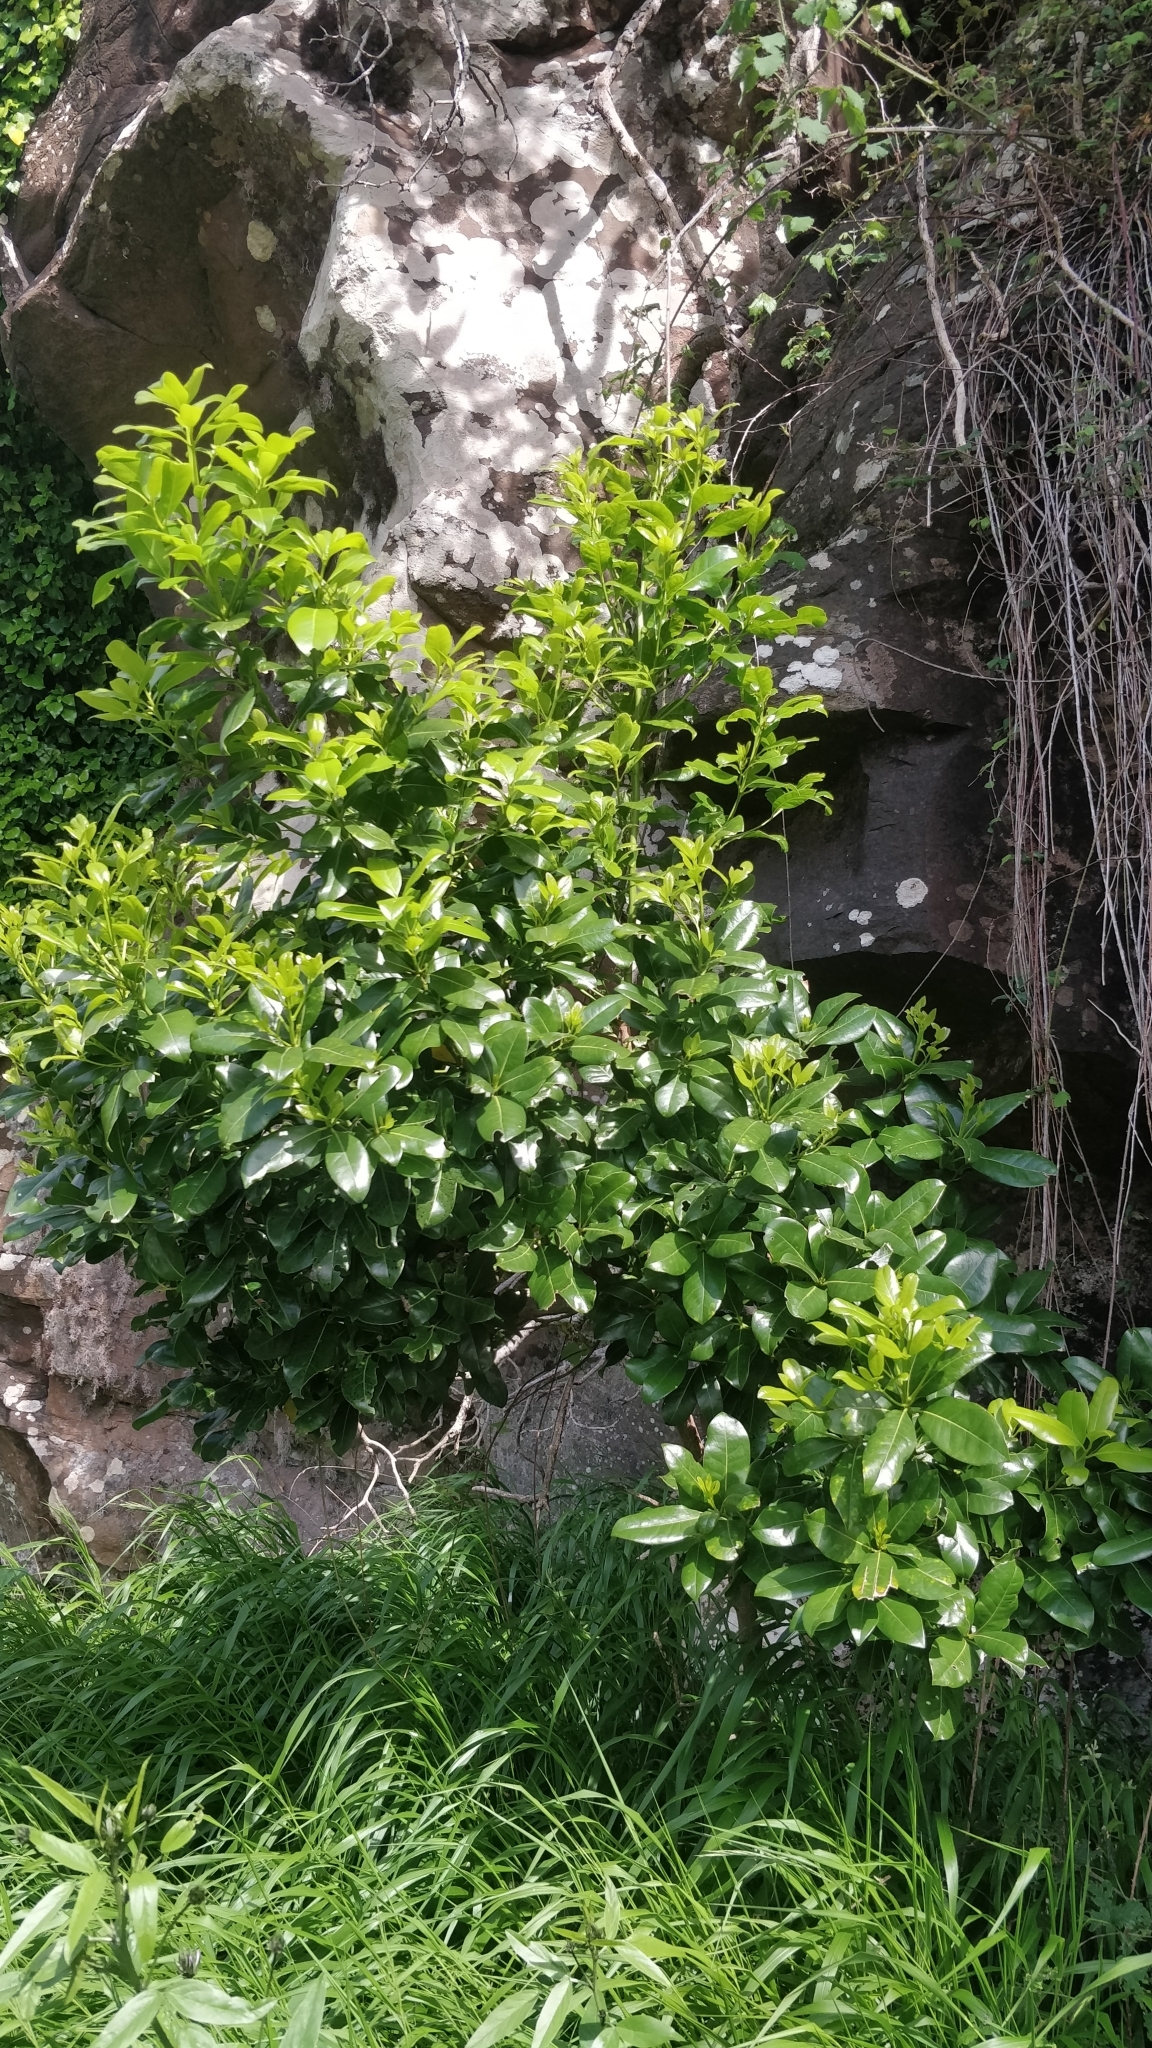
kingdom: Plantae
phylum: Tracheophyta
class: Magnoliopsida
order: Laurales
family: Lauraceae
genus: Apollonias
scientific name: Apollonias barbujana
